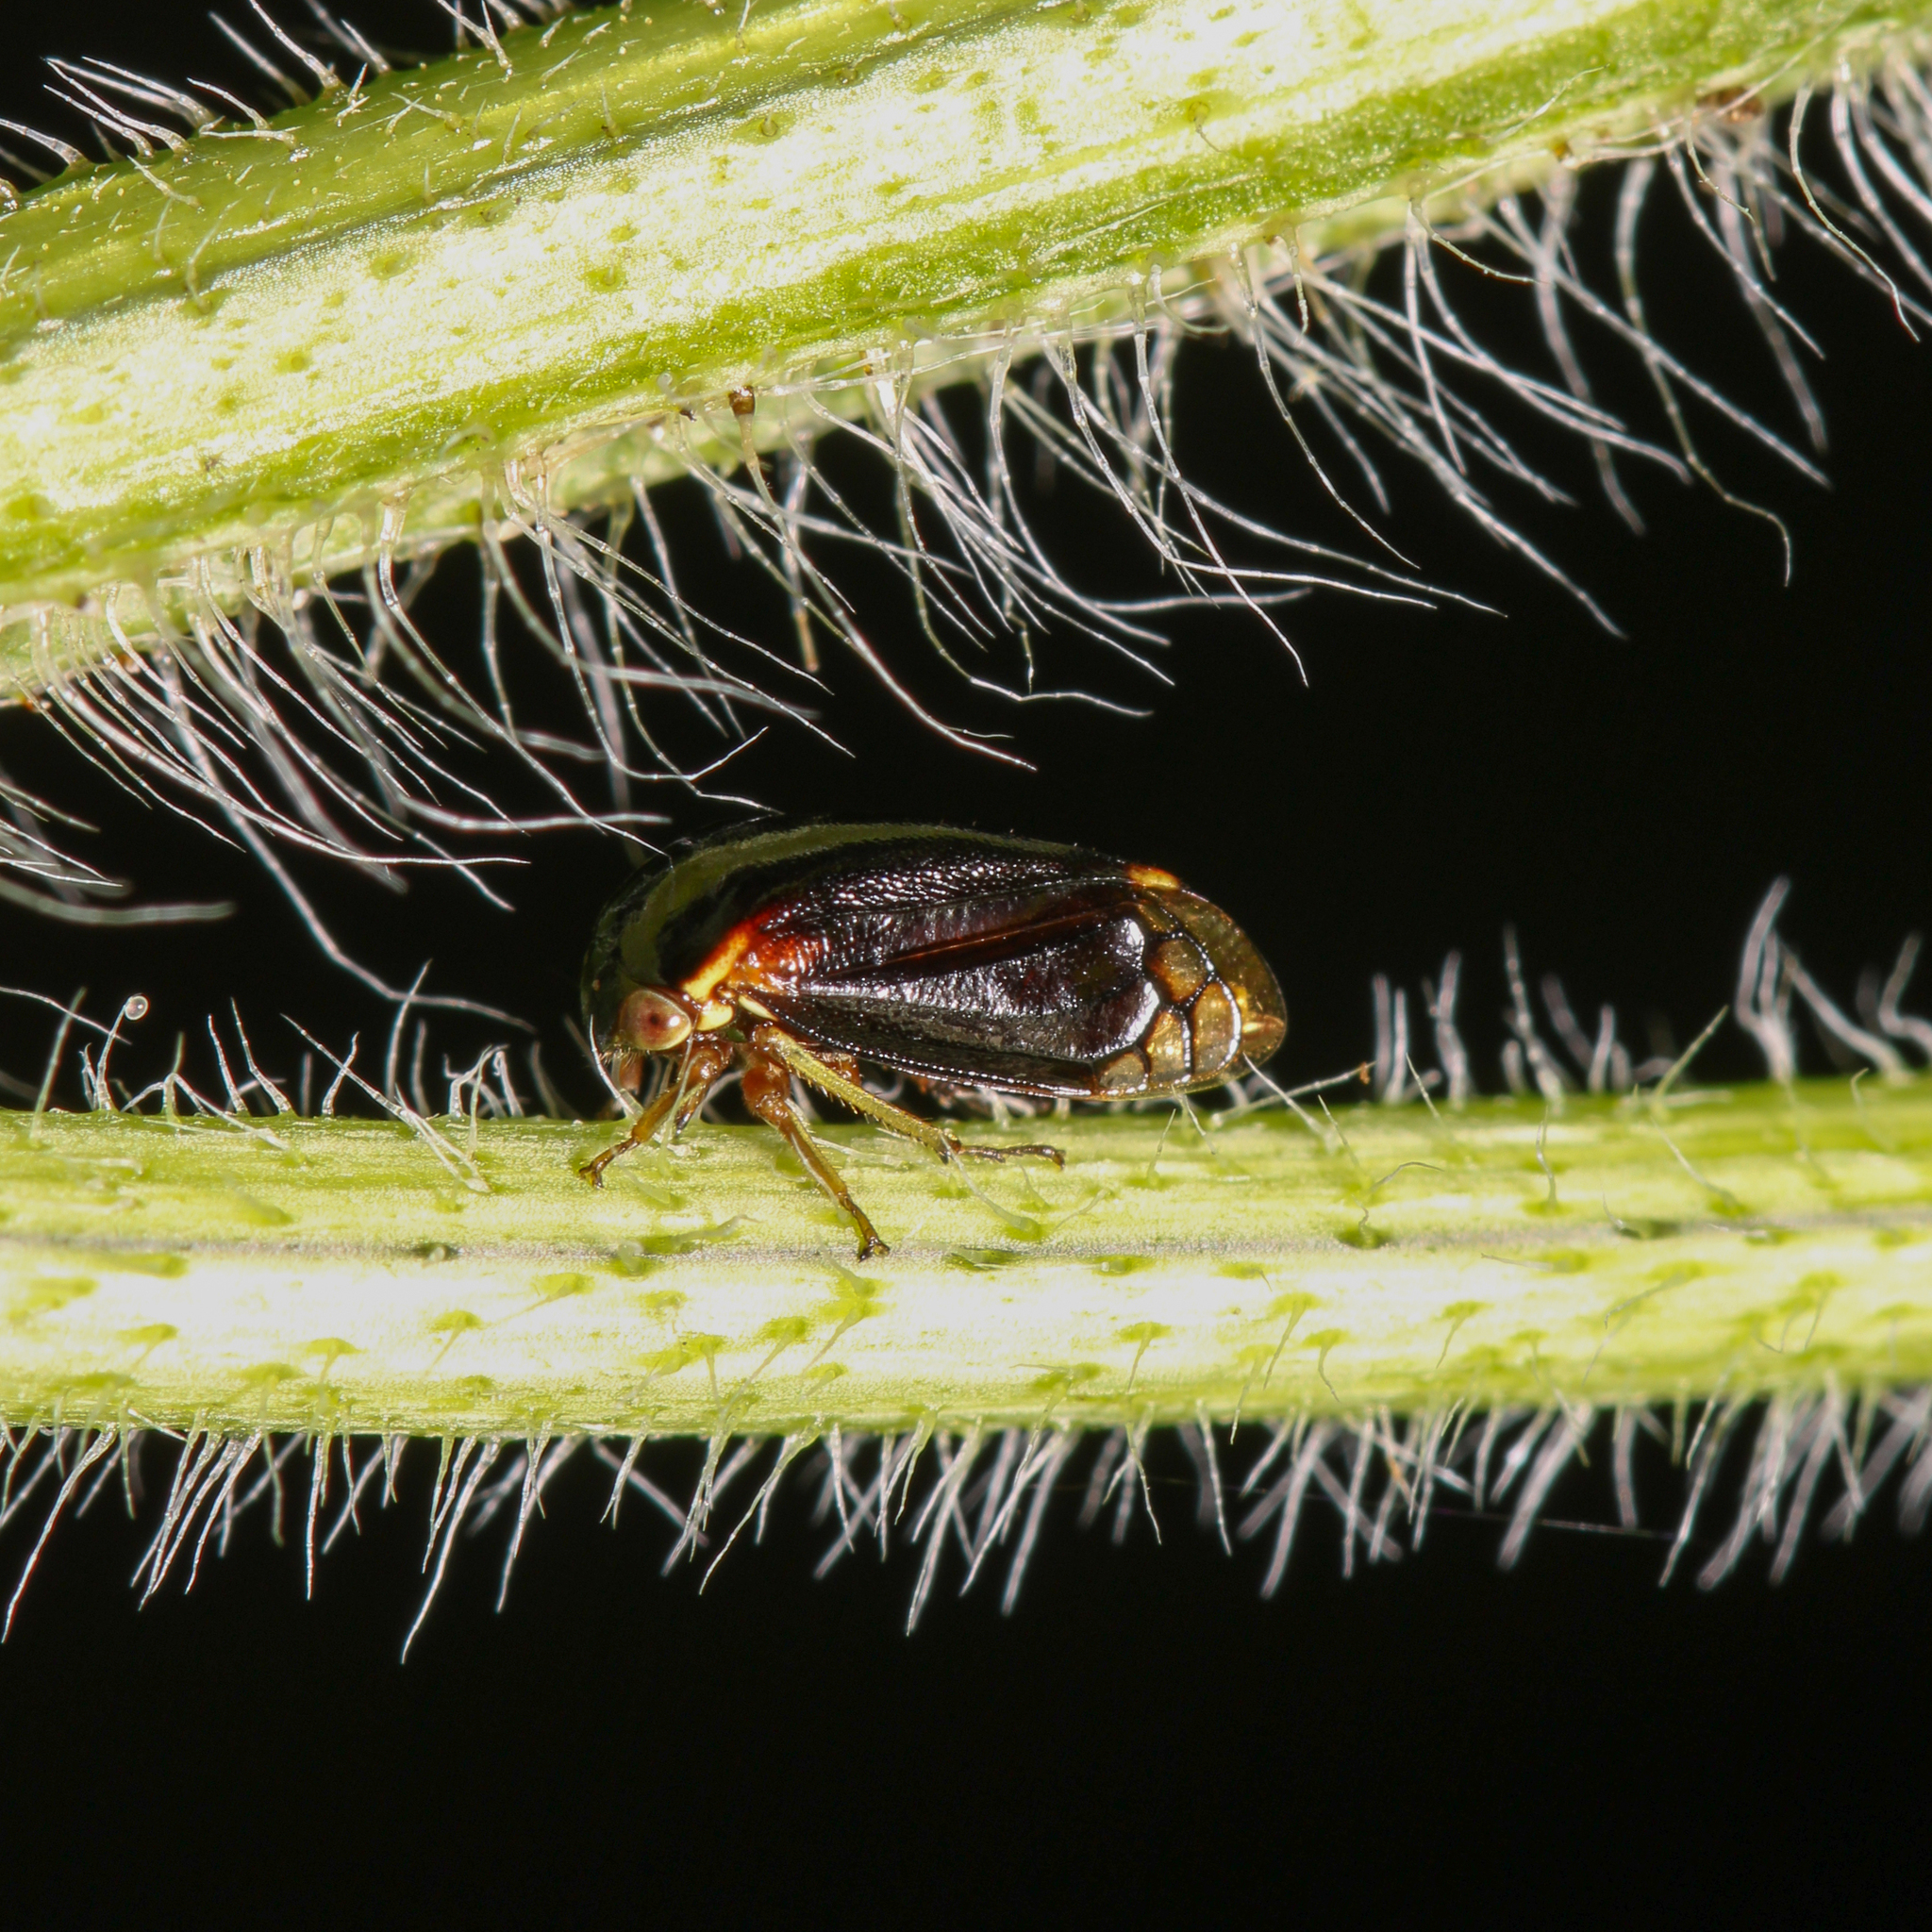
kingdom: Animalia
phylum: Arthropoda
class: Insecta
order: Hemiptera
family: Membracidae
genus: Acutalis
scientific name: Acutalis tartarea
